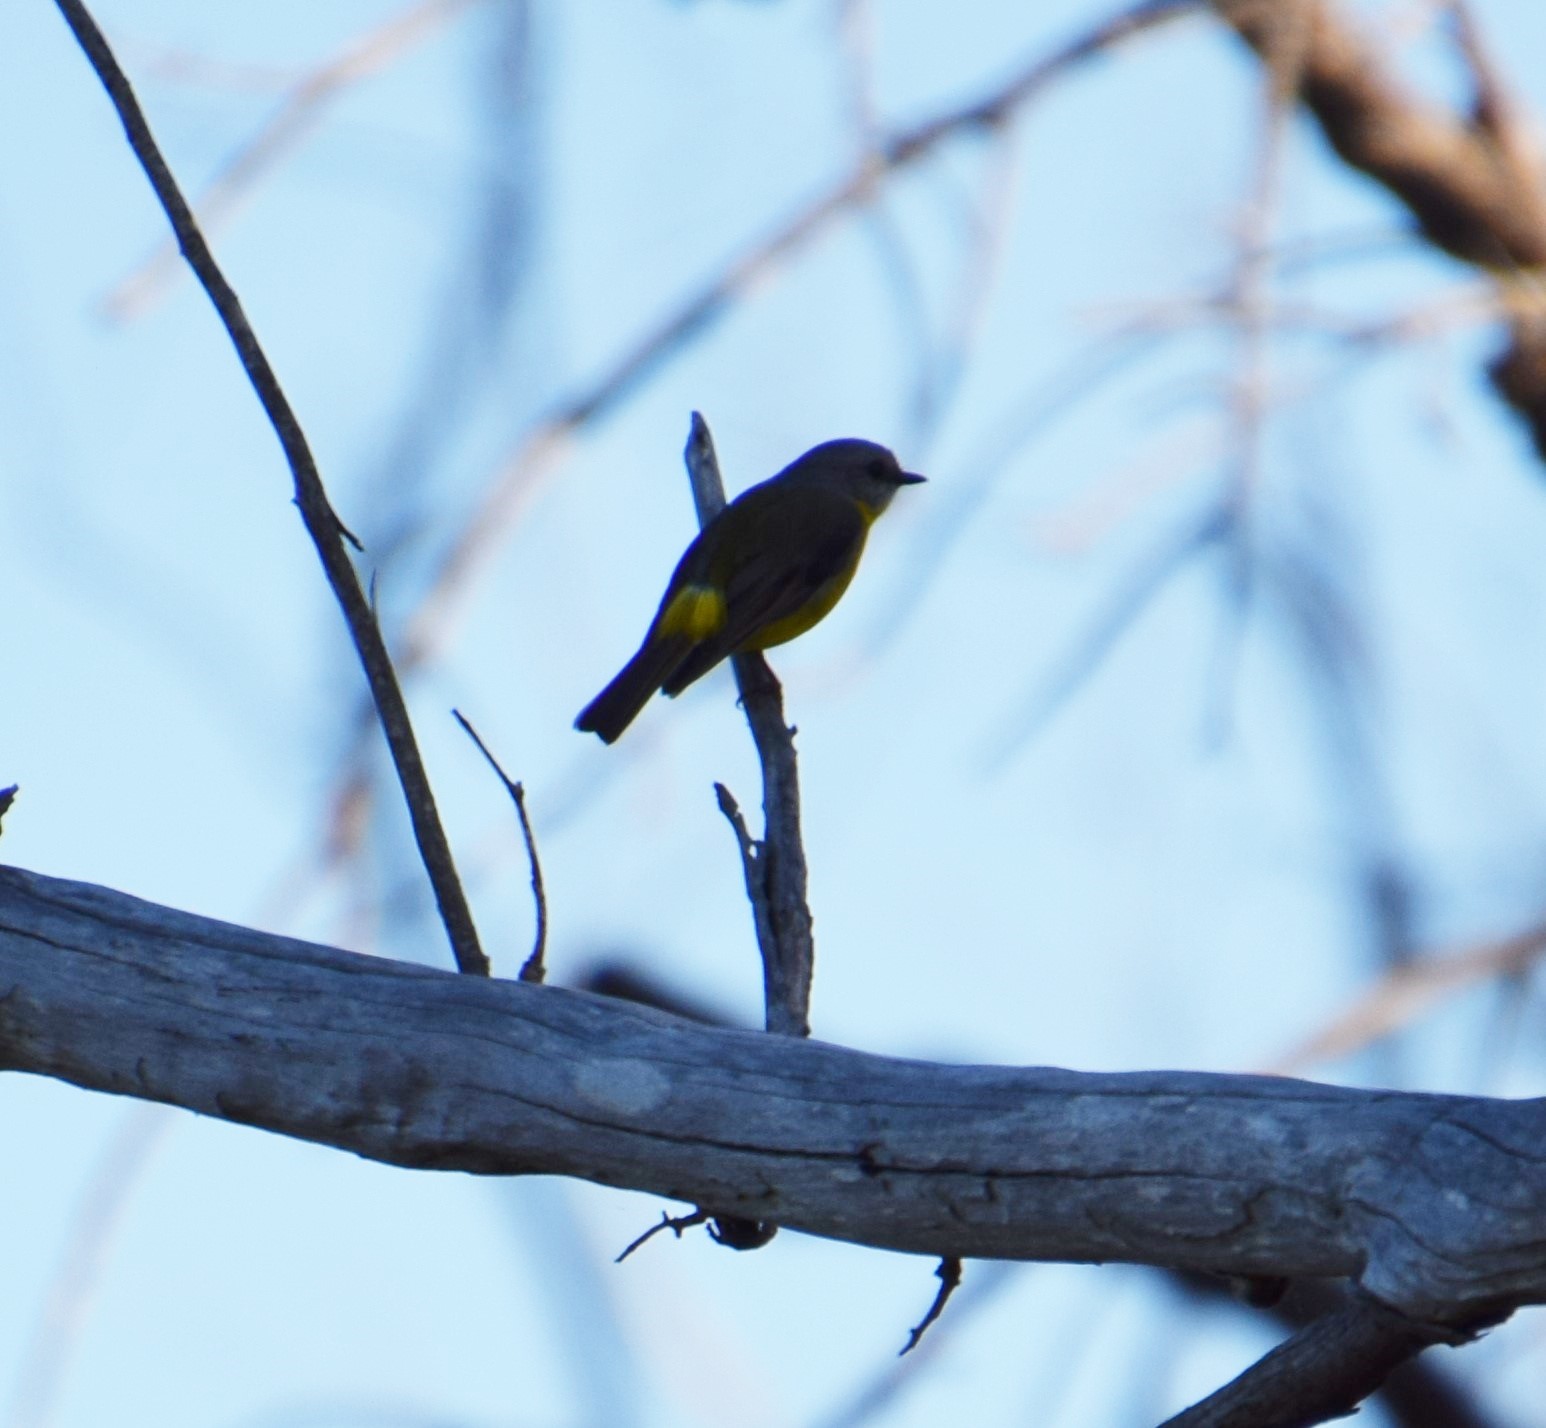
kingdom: Animalia
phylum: Chordata
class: Aves
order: Passeriformes
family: Petroicidae
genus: Eopsaltria
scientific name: Eopsaltria australis
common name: Eastern yellow robin
